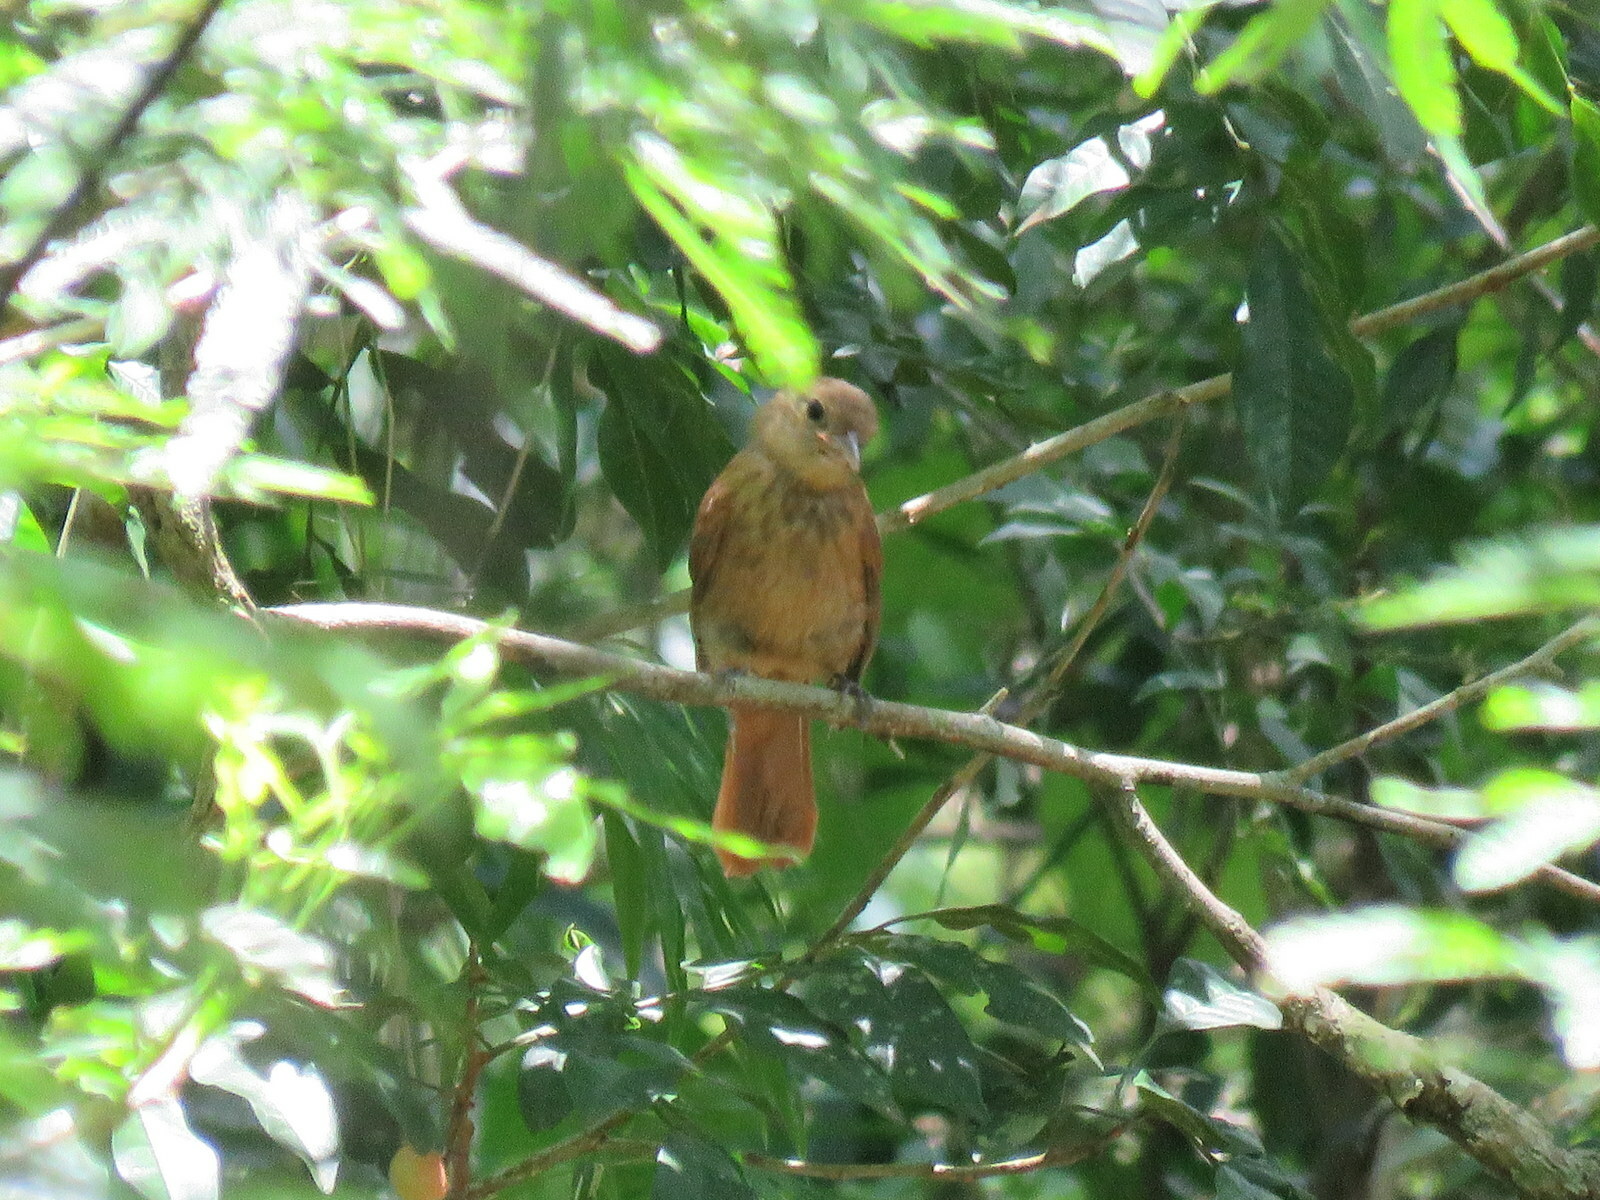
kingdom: Animalia
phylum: Chordata
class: Aves
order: Passeriformes
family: Thraupidae
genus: Tachyphonus
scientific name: Tachyphonus coronatus
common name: Ruby-crowned tanager
